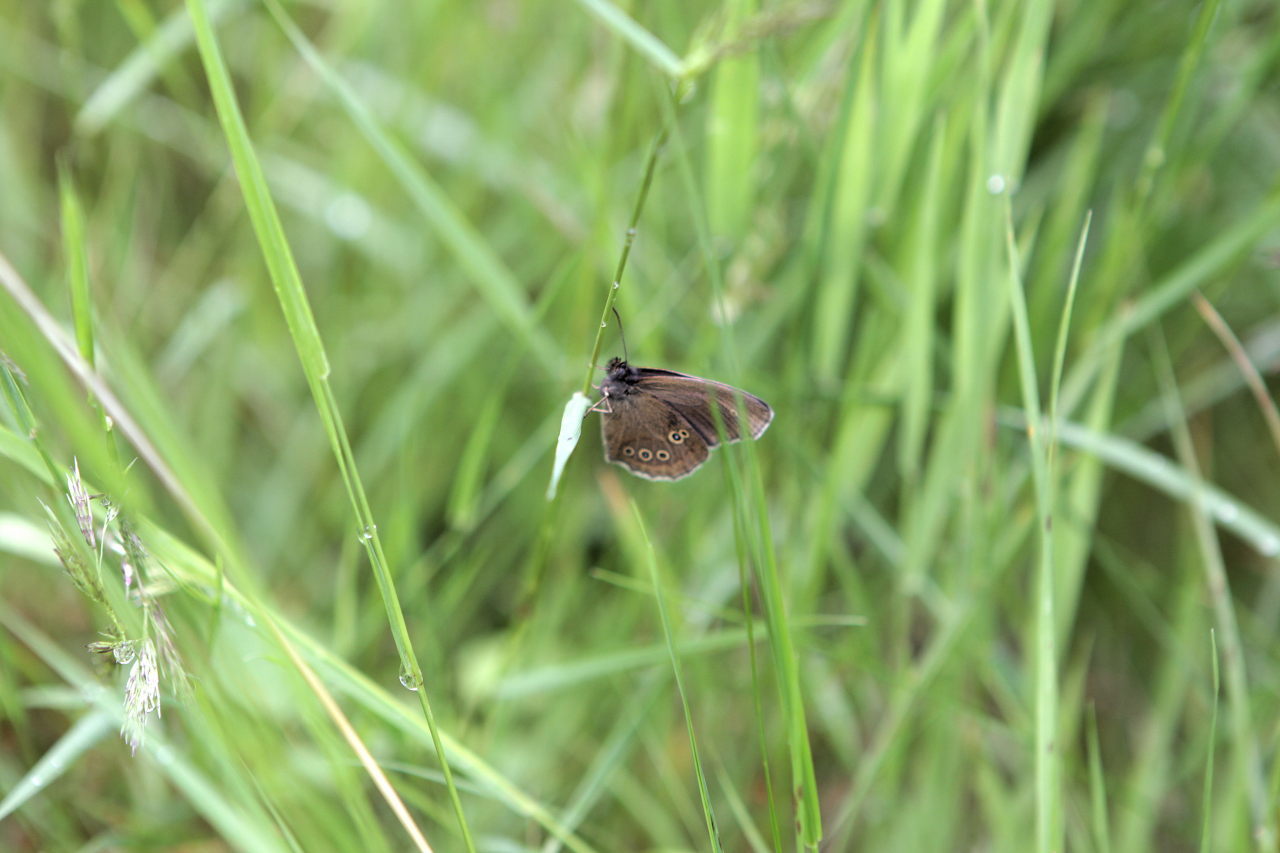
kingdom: Animalia
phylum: Arthropoda
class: Insecta
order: Lepidoptera
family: Nymphalidae
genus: Aphantopus
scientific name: Aphantopus hyperantus
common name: Ringlet
